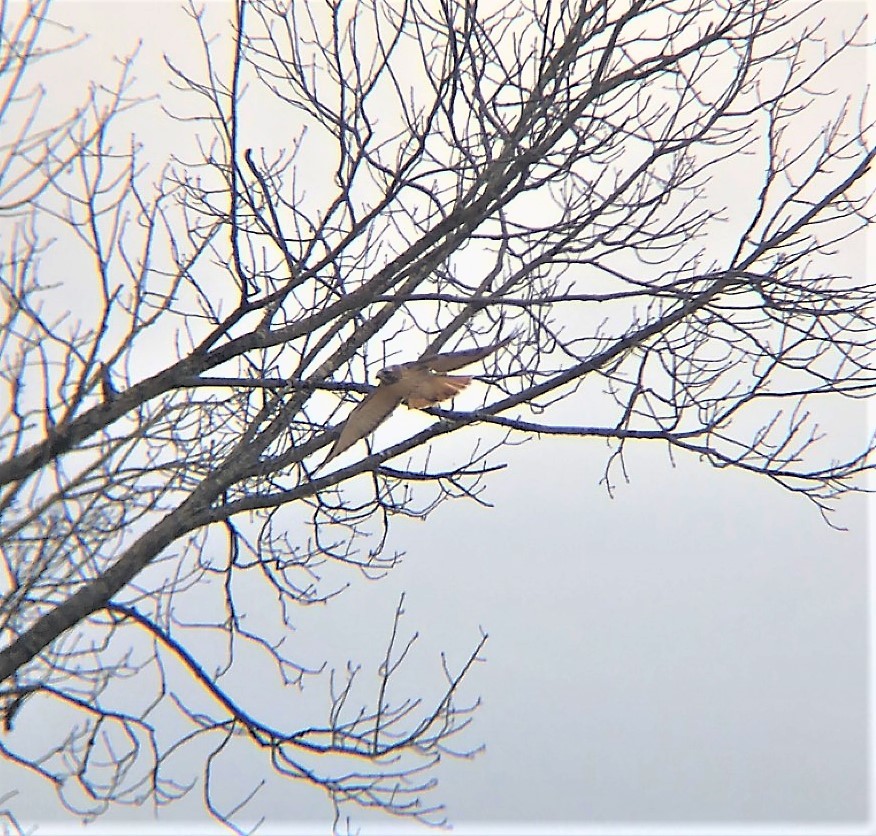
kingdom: Animalia
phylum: Chordata
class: Aves
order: Accipitriformes
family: Accipitridae
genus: Buteo
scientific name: Buteo jamaicensis
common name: Red-tailed hawk
